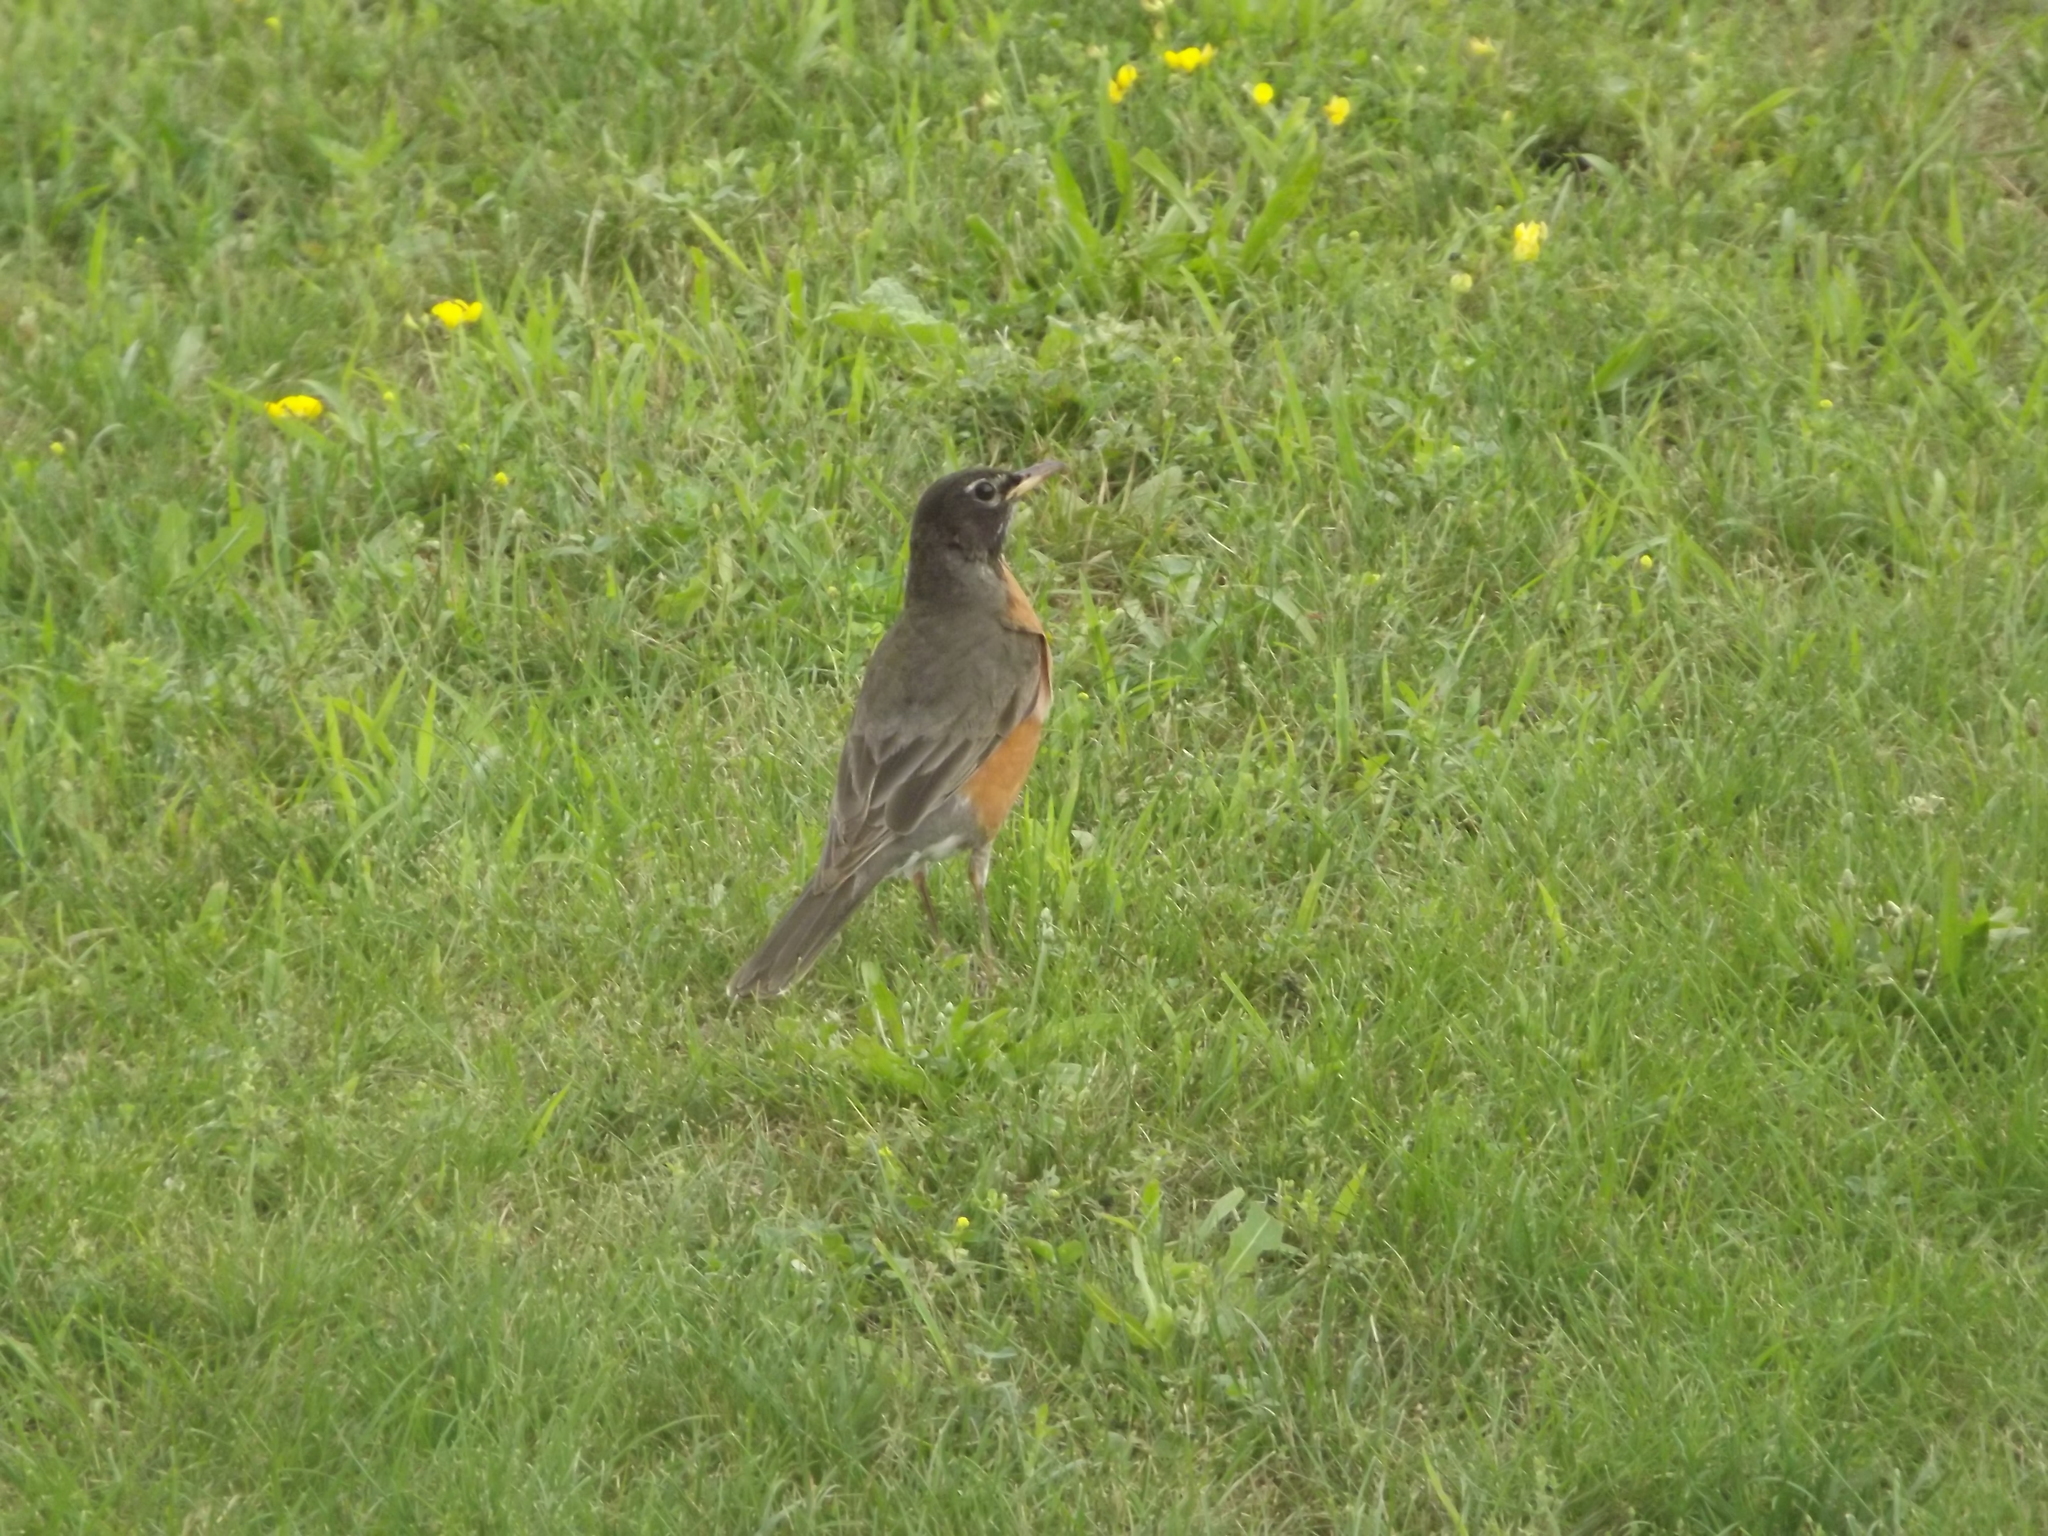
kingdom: Animalia
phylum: Chordata
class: Aves
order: Passeriformes
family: Turdidae
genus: Turdus
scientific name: Turdus migratorius
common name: American robin
